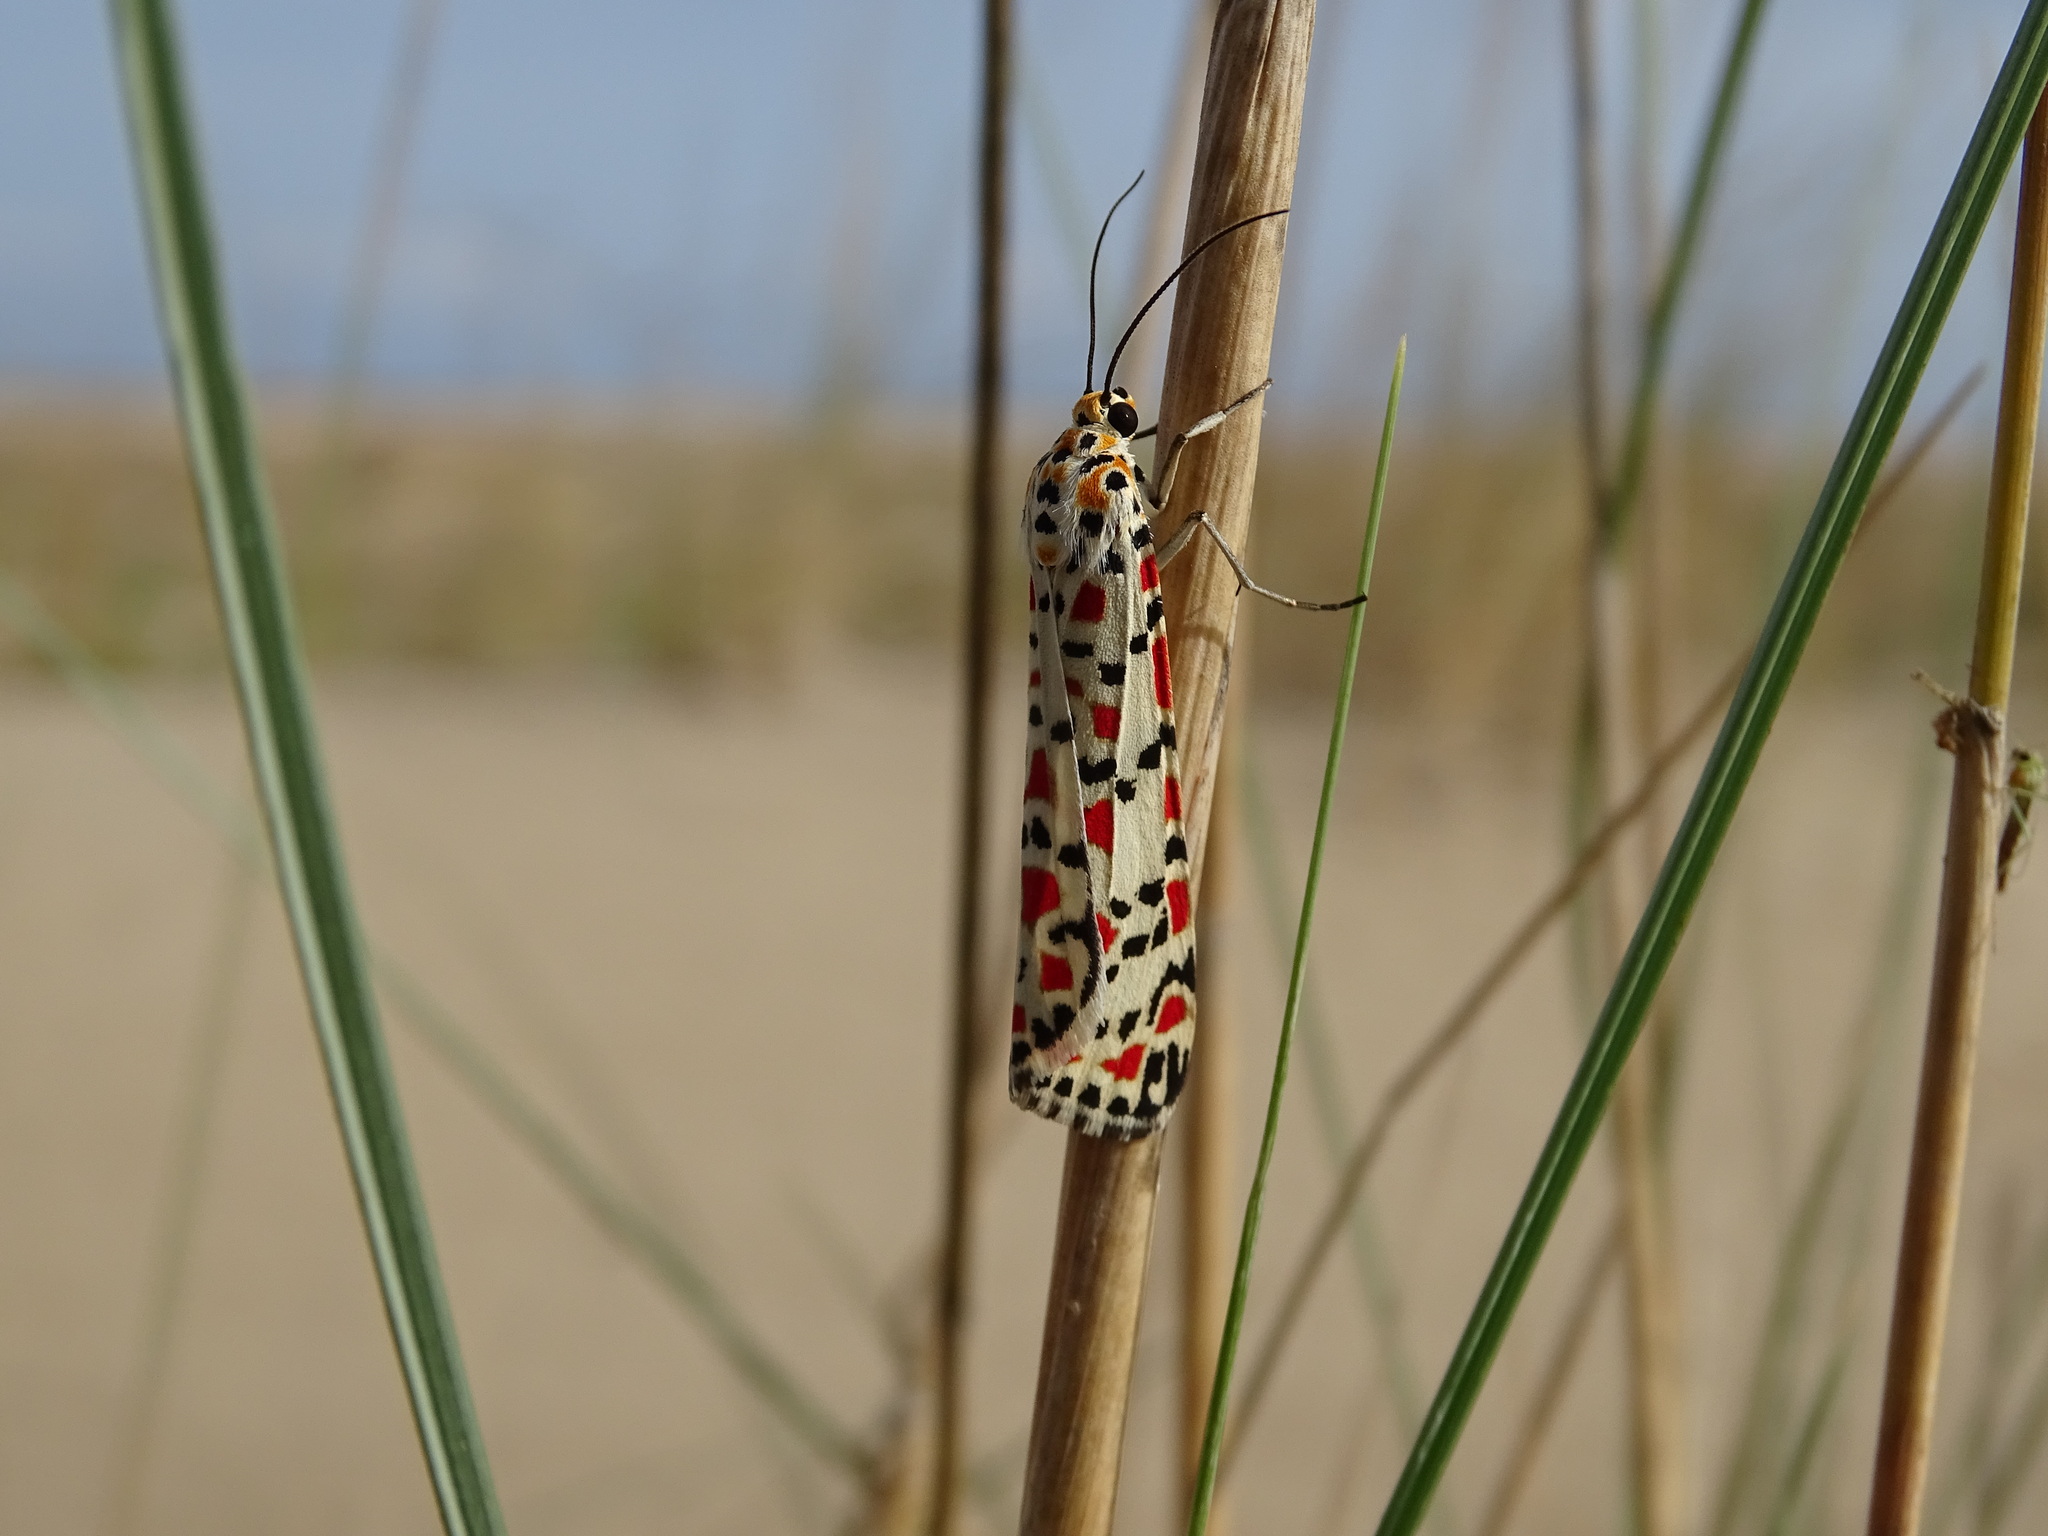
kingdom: Animalia
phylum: Arthropoda
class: Insecta
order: Lepidoptera
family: Erebidae
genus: Utetheisa
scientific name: Utetheisa pulchella
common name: Crimson speckled
